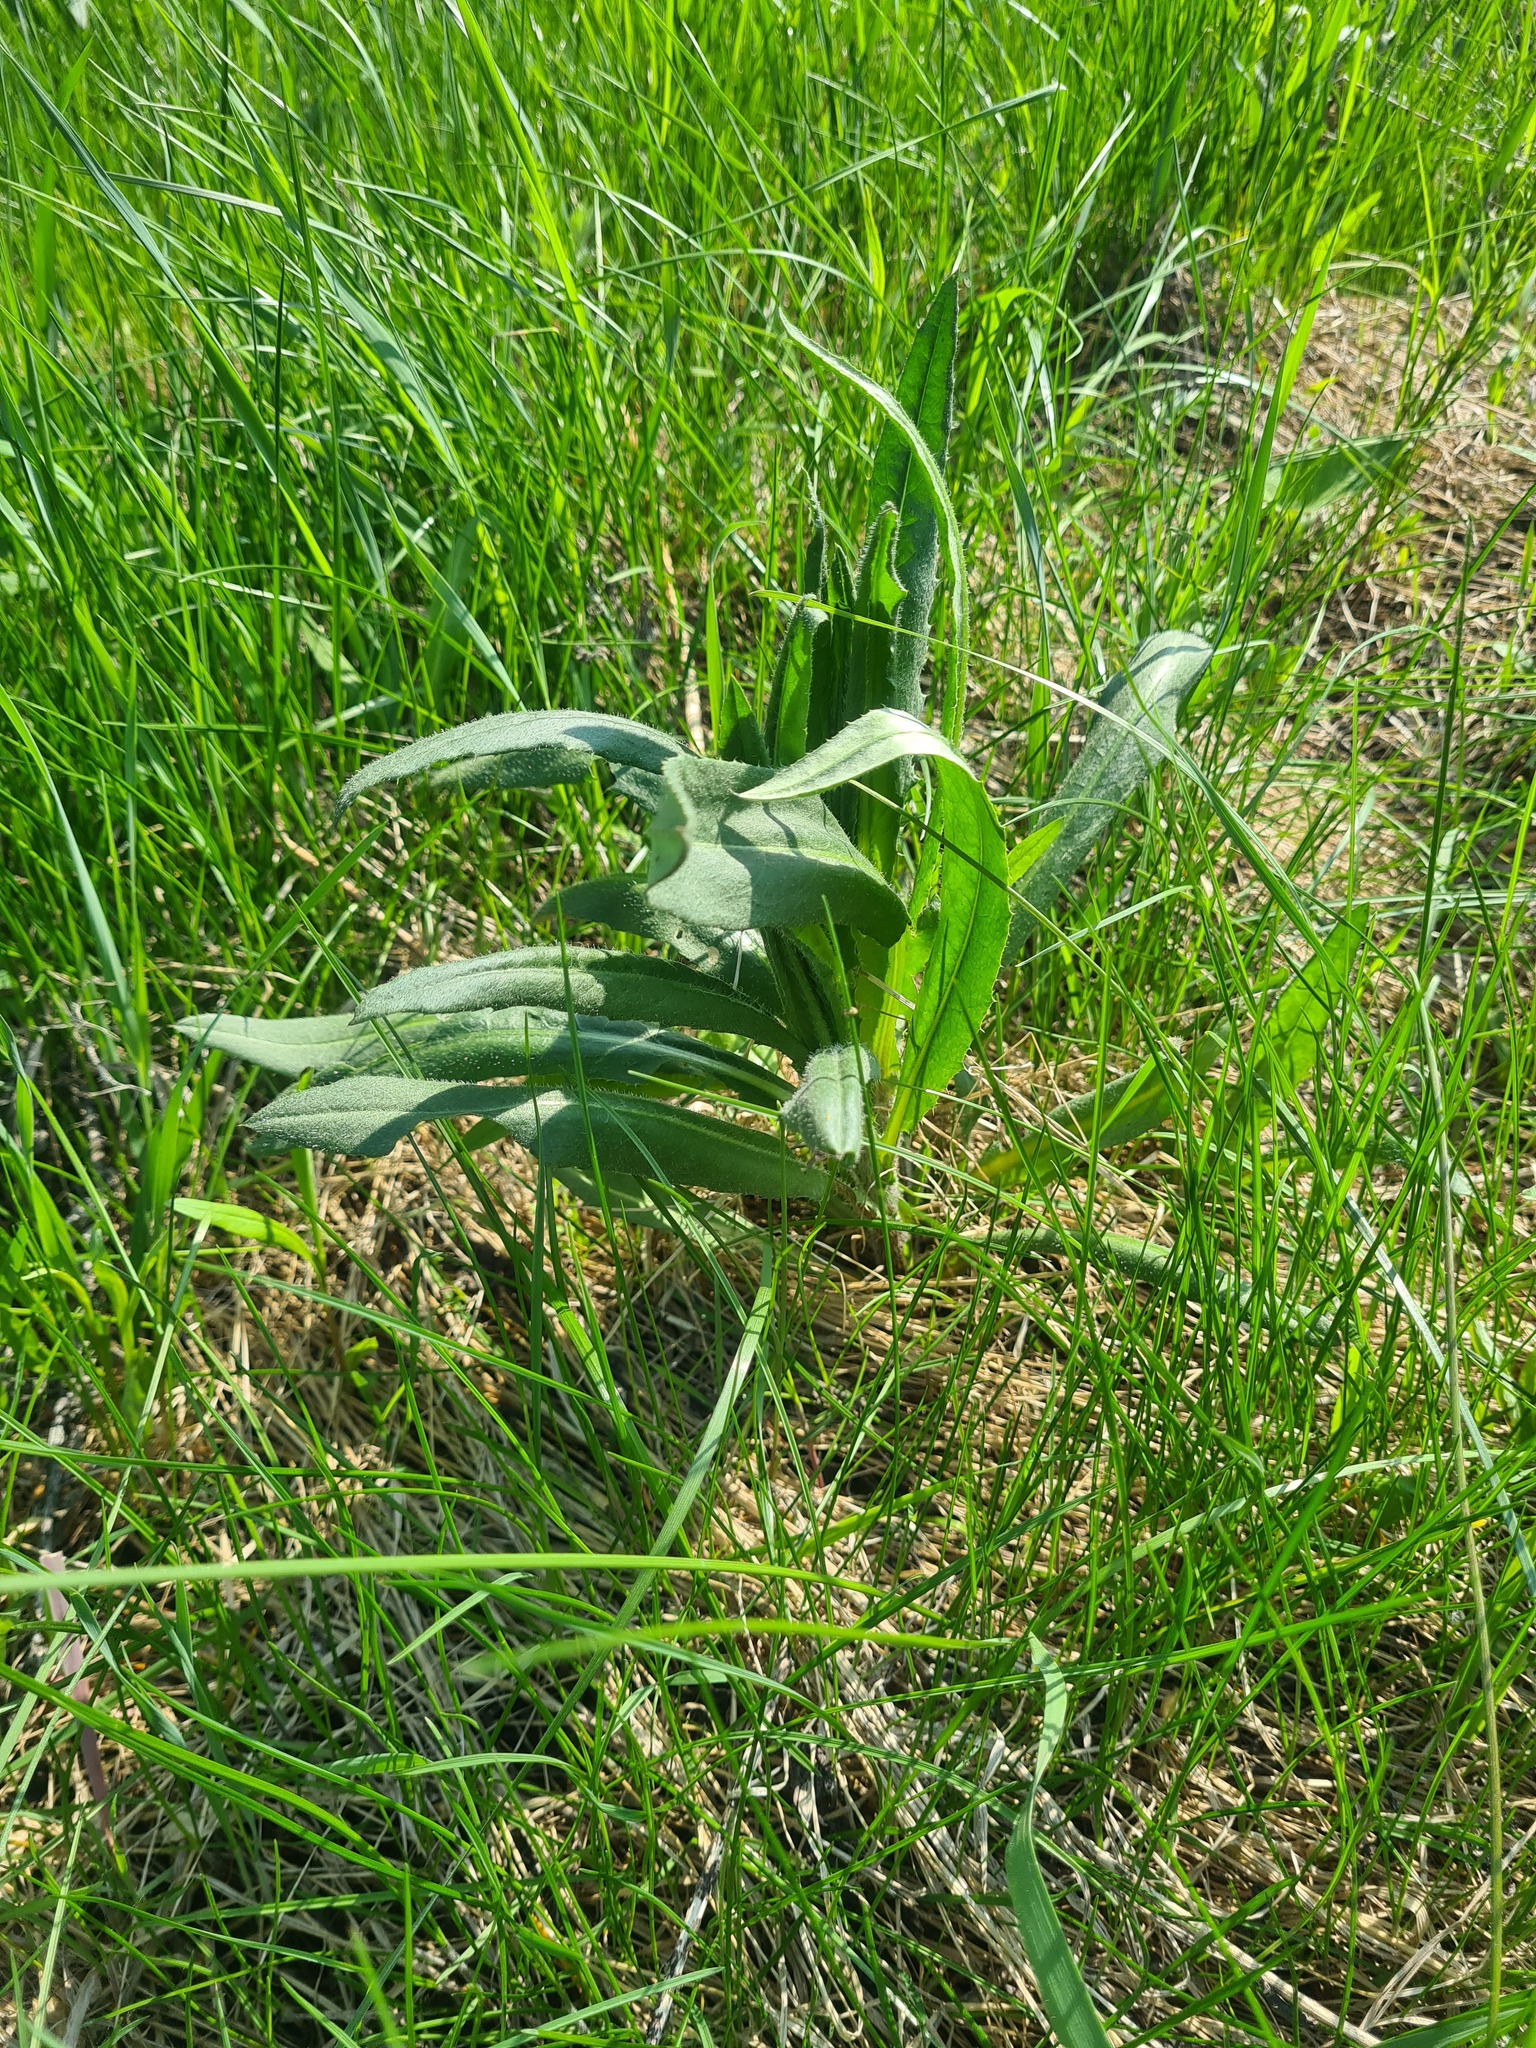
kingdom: Plantae
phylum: Tracheophyta
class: Magnoliopsida
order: Asterales
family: Asteraceae
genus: Cirsium
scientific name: Cirsium arvense
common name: Creeping thistle
